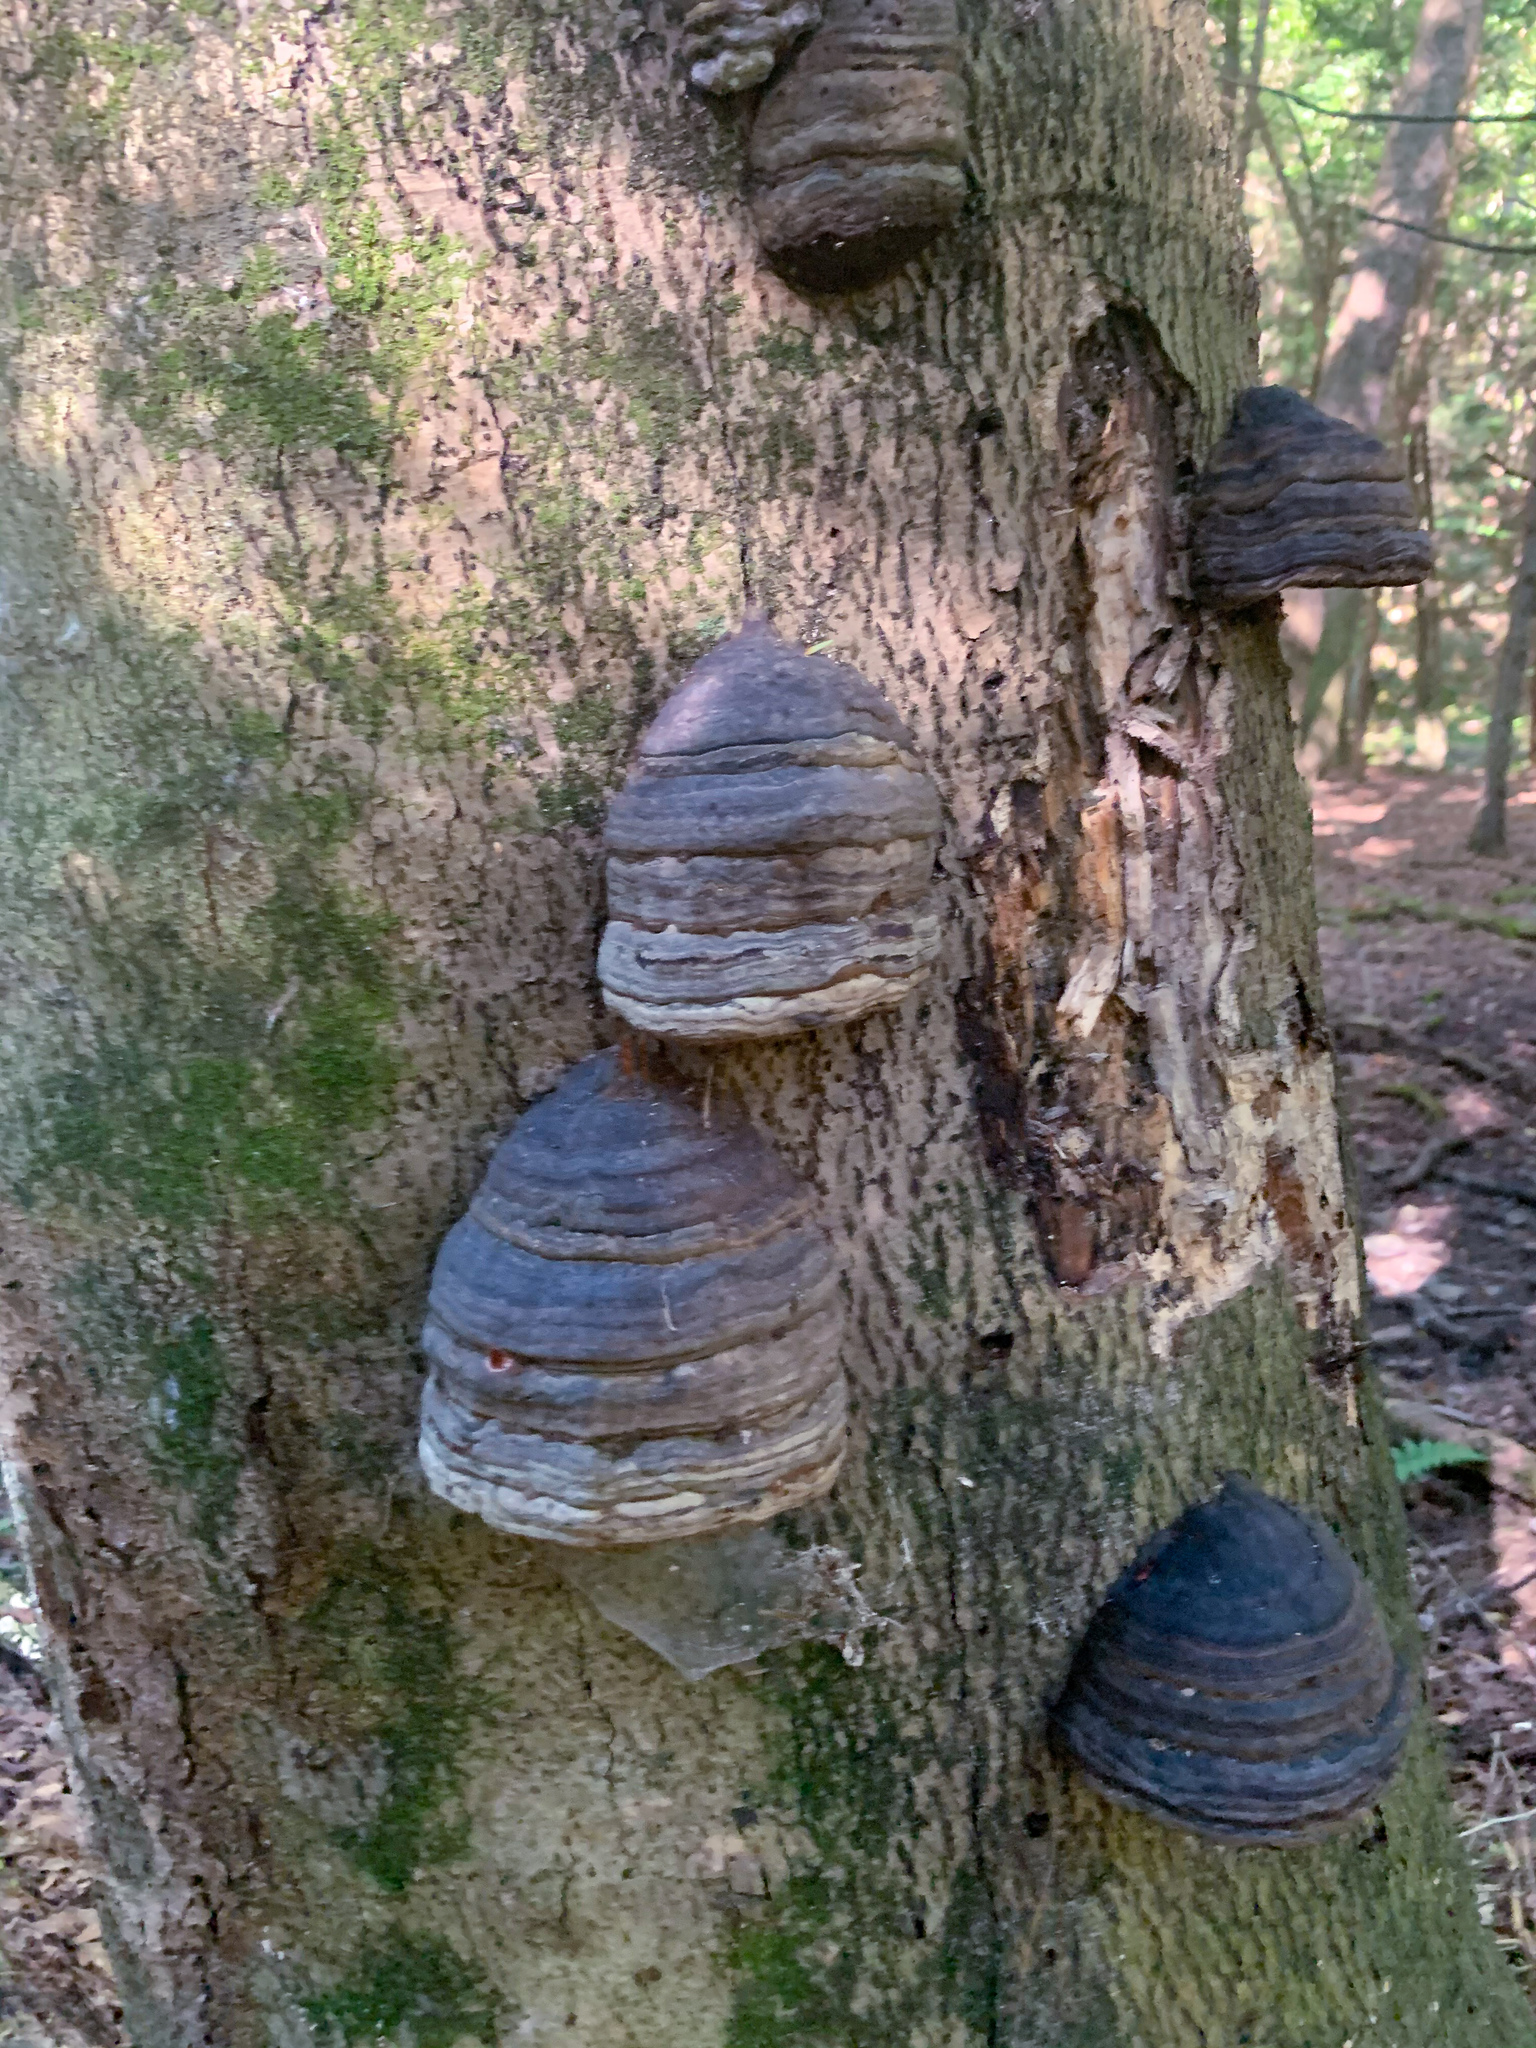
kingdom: Fungi
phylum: Basidiomycota
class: Agaricomycetes
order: Polyporales
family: Polyporaceae
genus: Fomes
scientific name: Fomes fomentarius
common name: Hoof fungus
